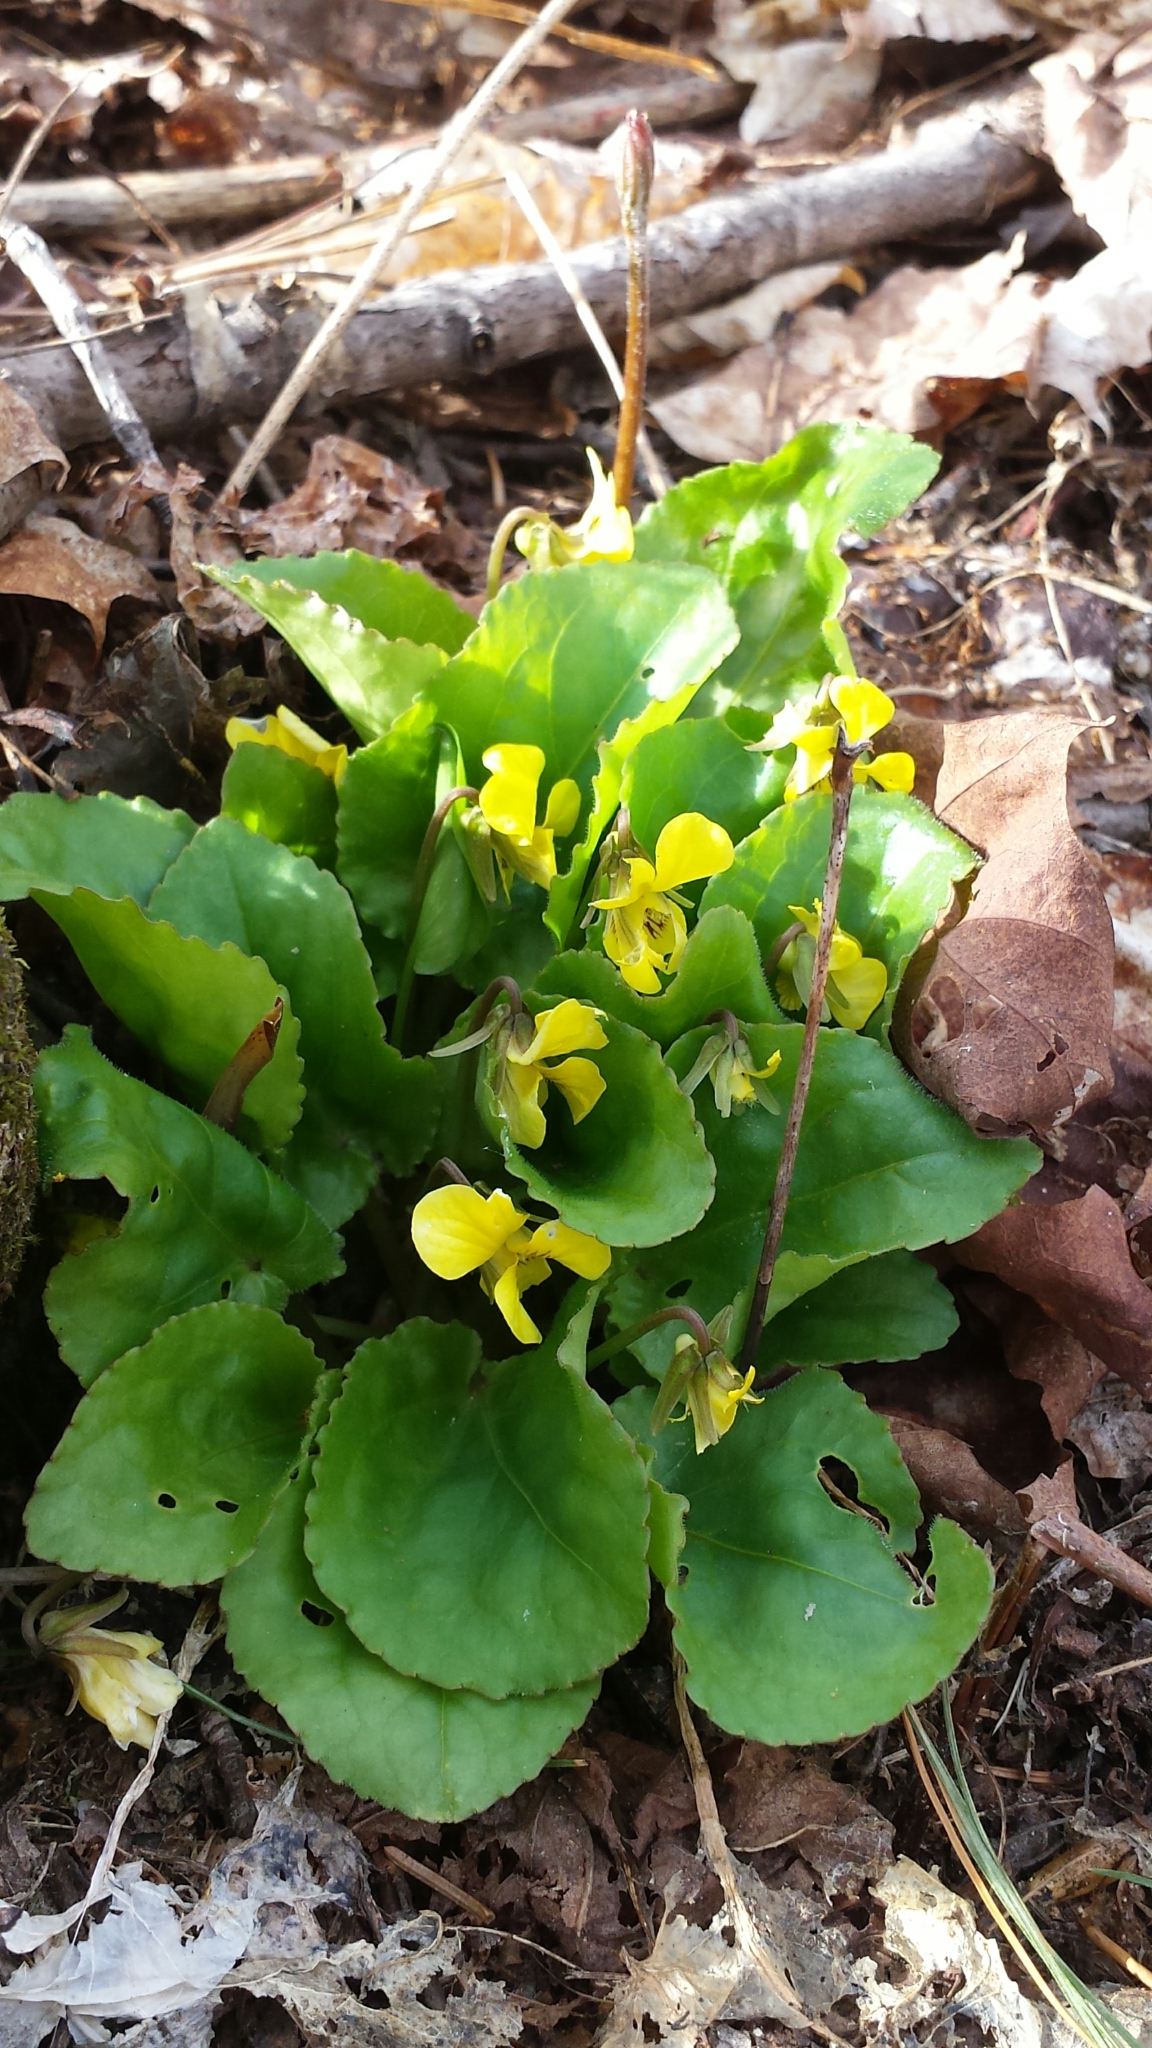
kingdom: Plantae
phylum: Tracheophyta
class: Magnoliopsida
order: Malpighiales
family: Violaceae
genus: Viola
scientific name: Viola rotundifolia
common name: Early yellow violet
